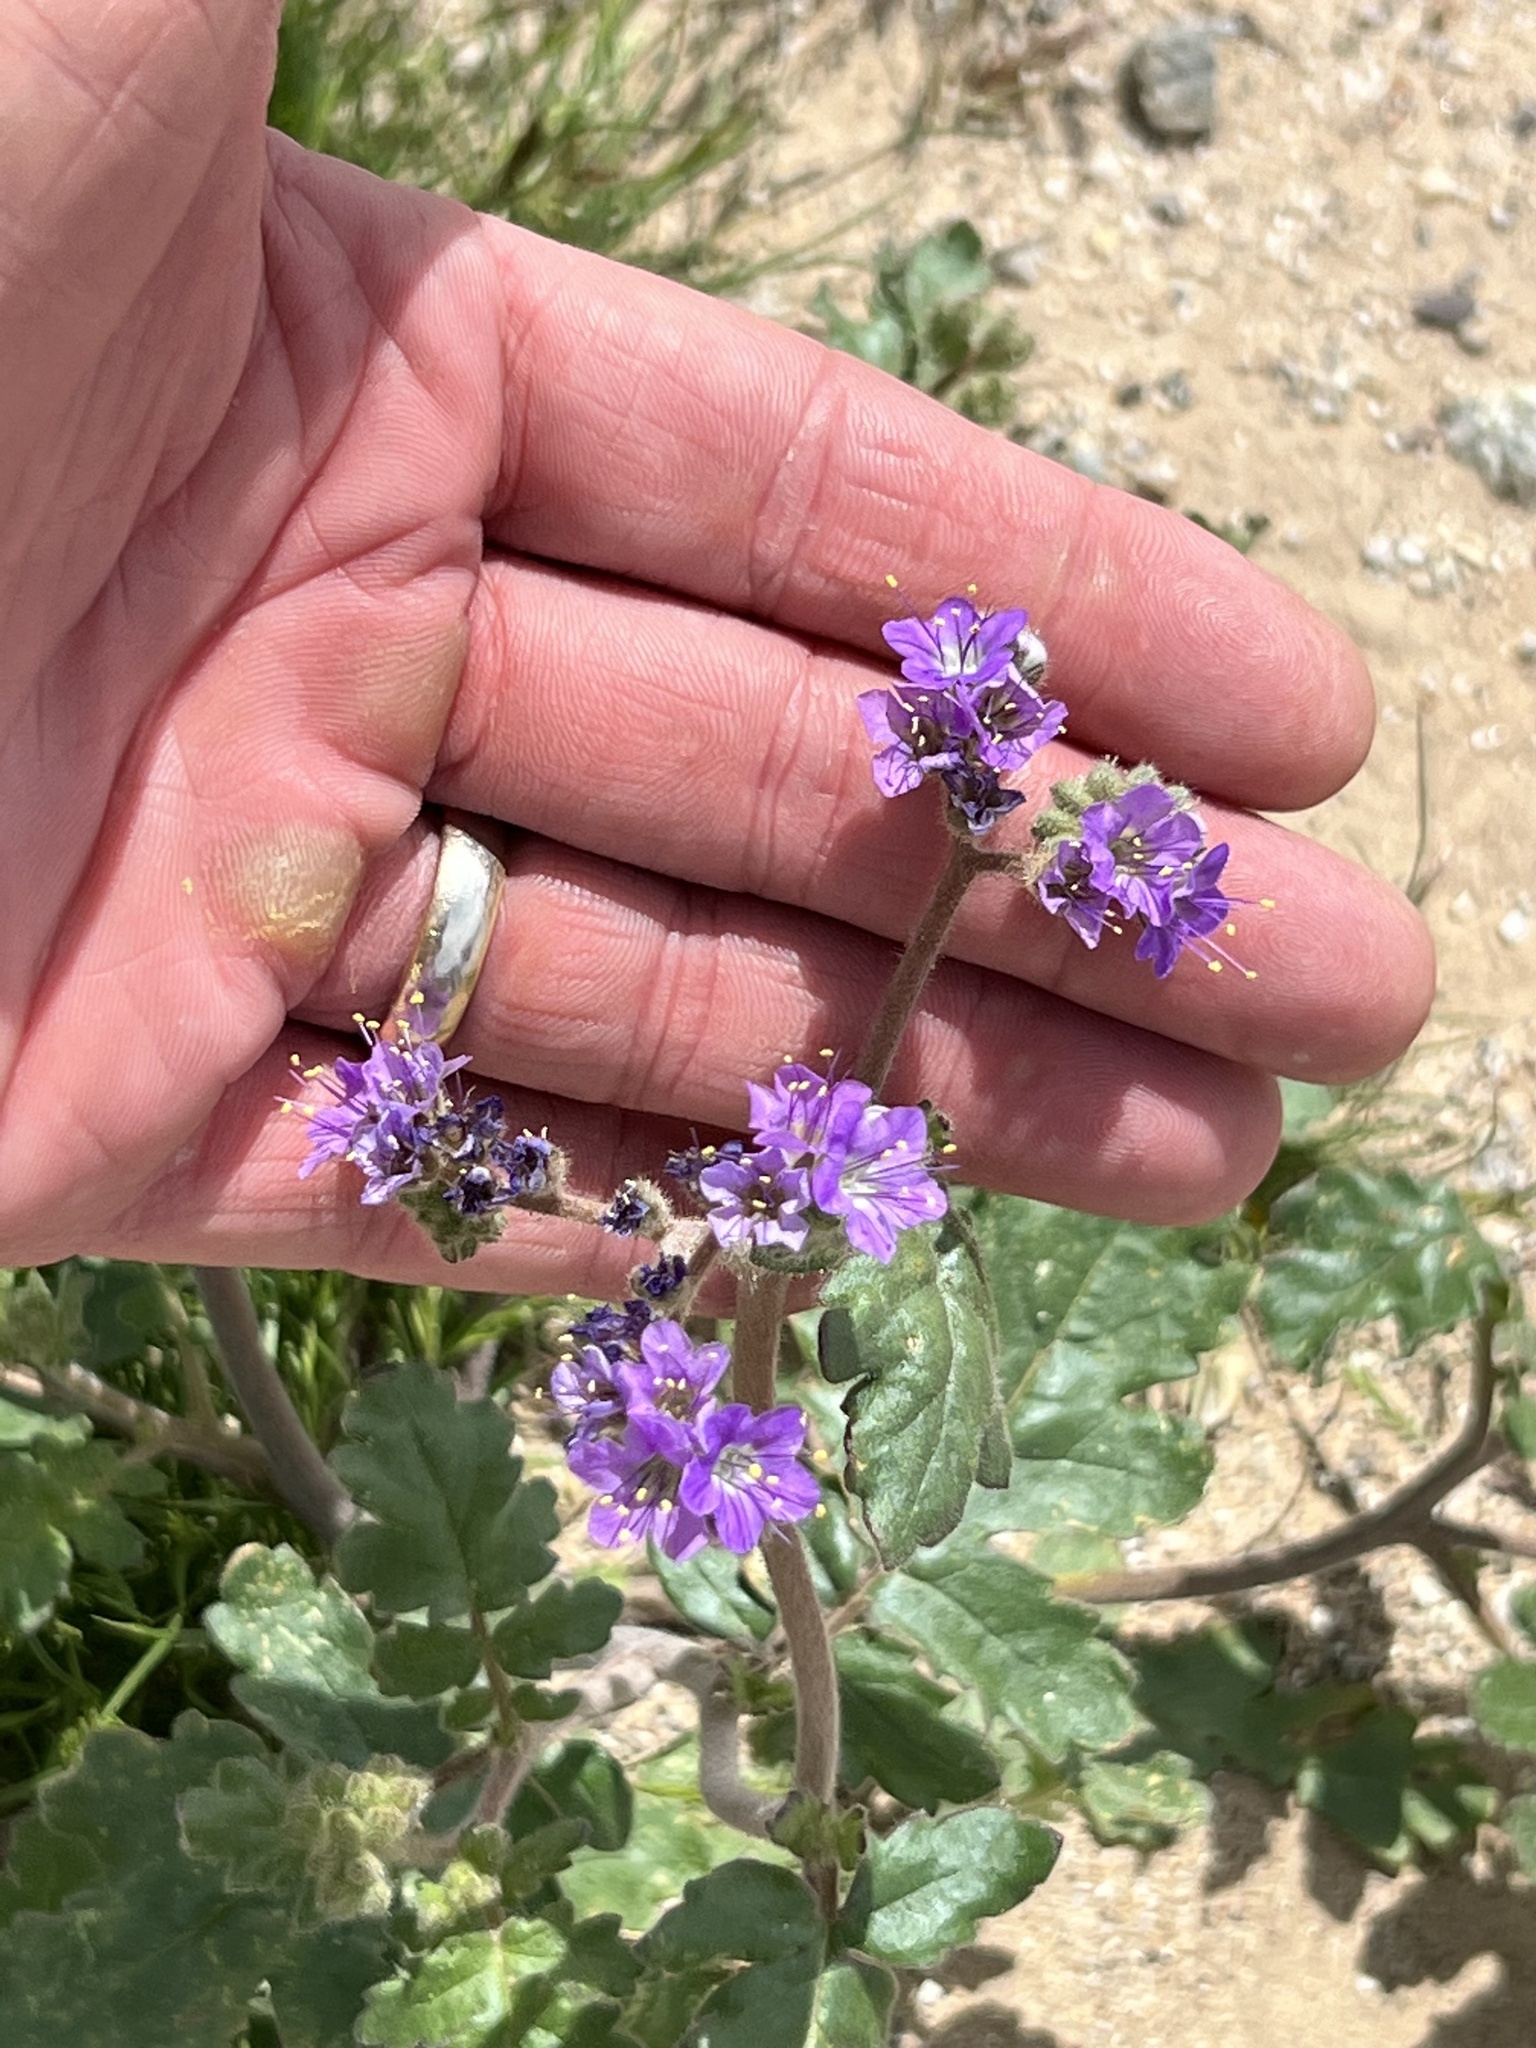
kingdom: Plantae
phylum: Tracheophyta
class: Magnoliopsida
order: Boraginales
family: Hydrophyllaceae
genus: Phacelia
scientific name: Phacelia crenulata
